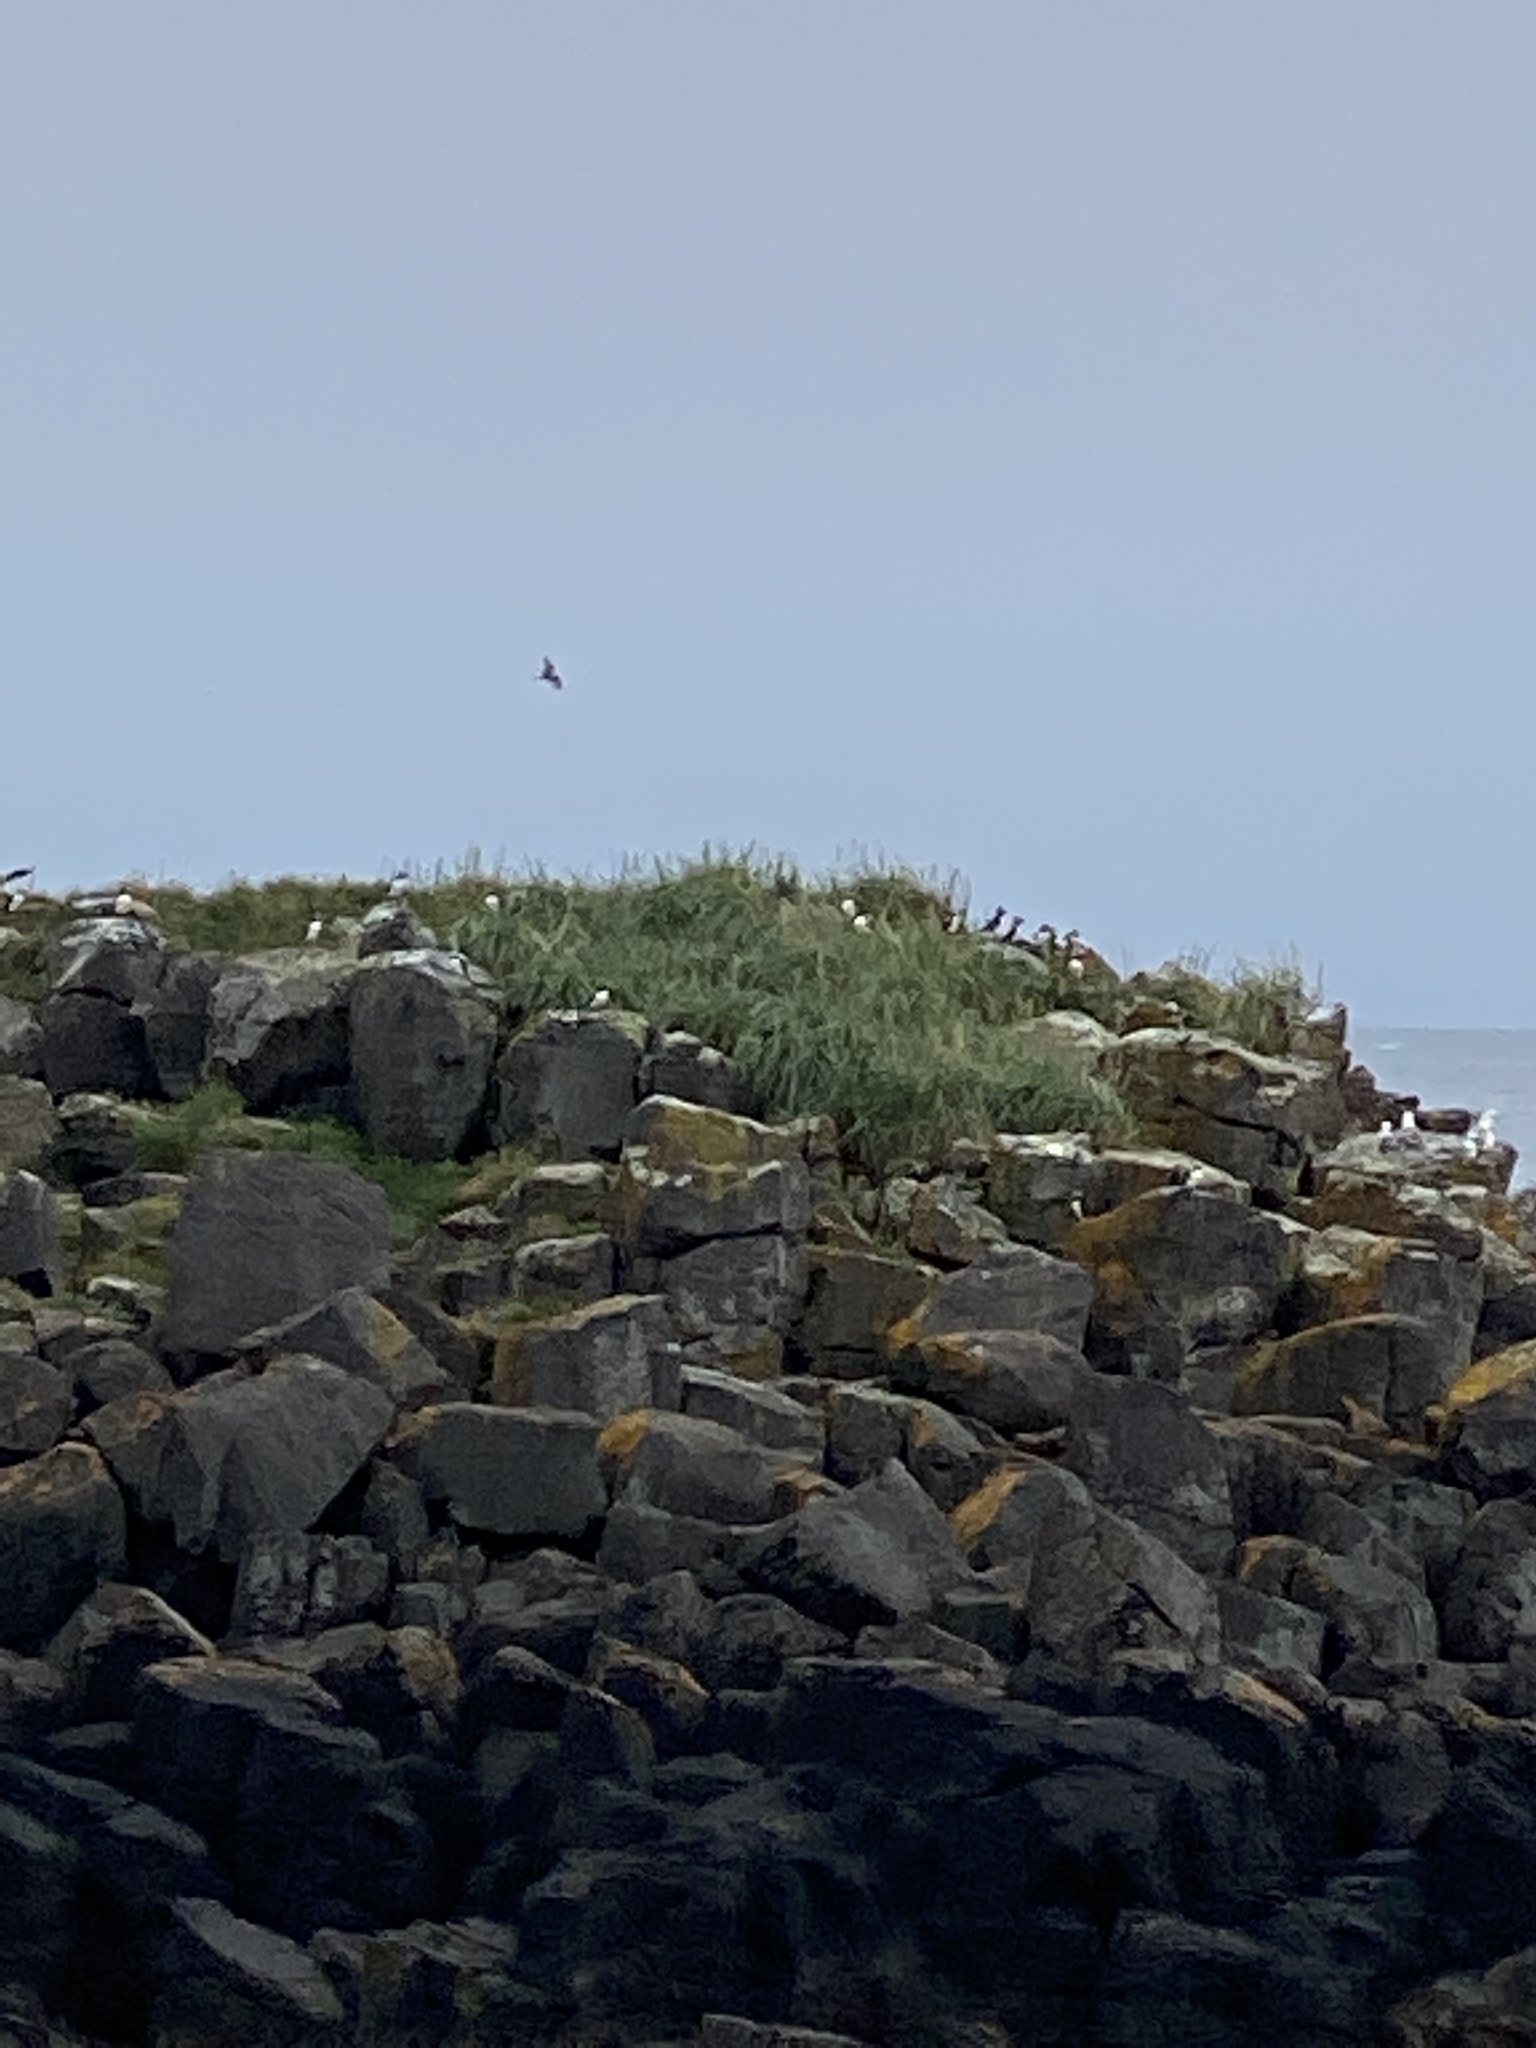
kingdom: Animalia
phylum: Chordata
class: Aves
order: Charadriiformes
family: Alcidae
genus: Fratercula
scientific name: Fratercula arctica
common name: Atlantic puffin
